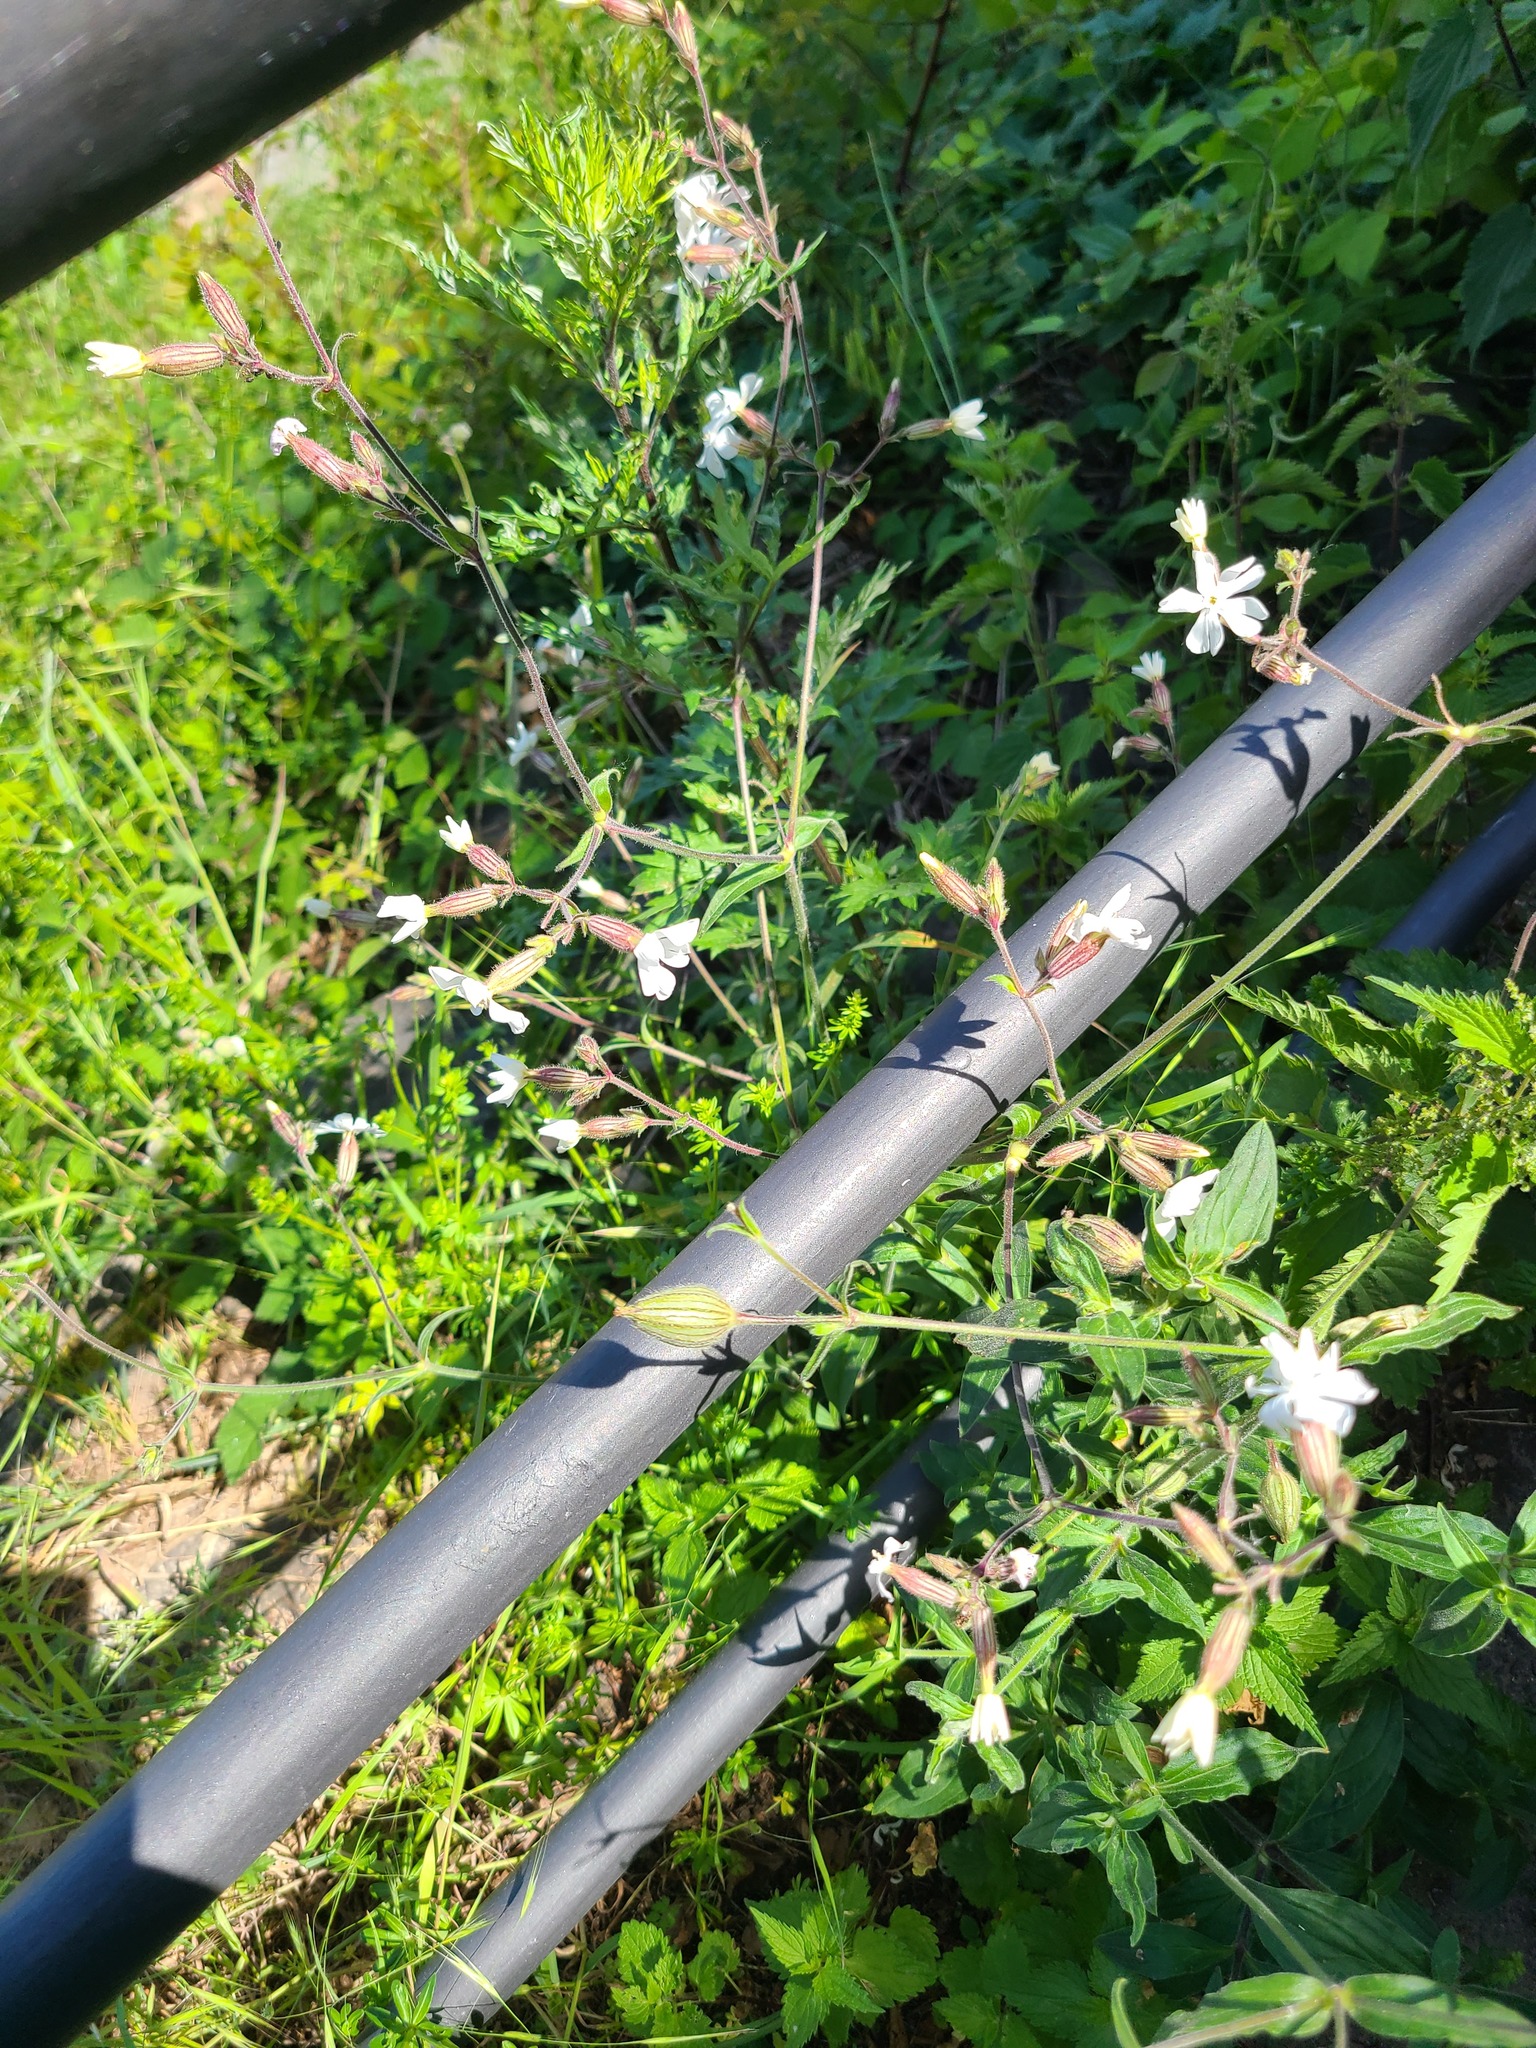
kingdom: Plantae
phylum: Tracheophyta
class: Magnoliopsida
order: Caryophyllales
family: Caryophyllaceae
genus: Silene
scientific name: Silene latifolia
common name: White campion
